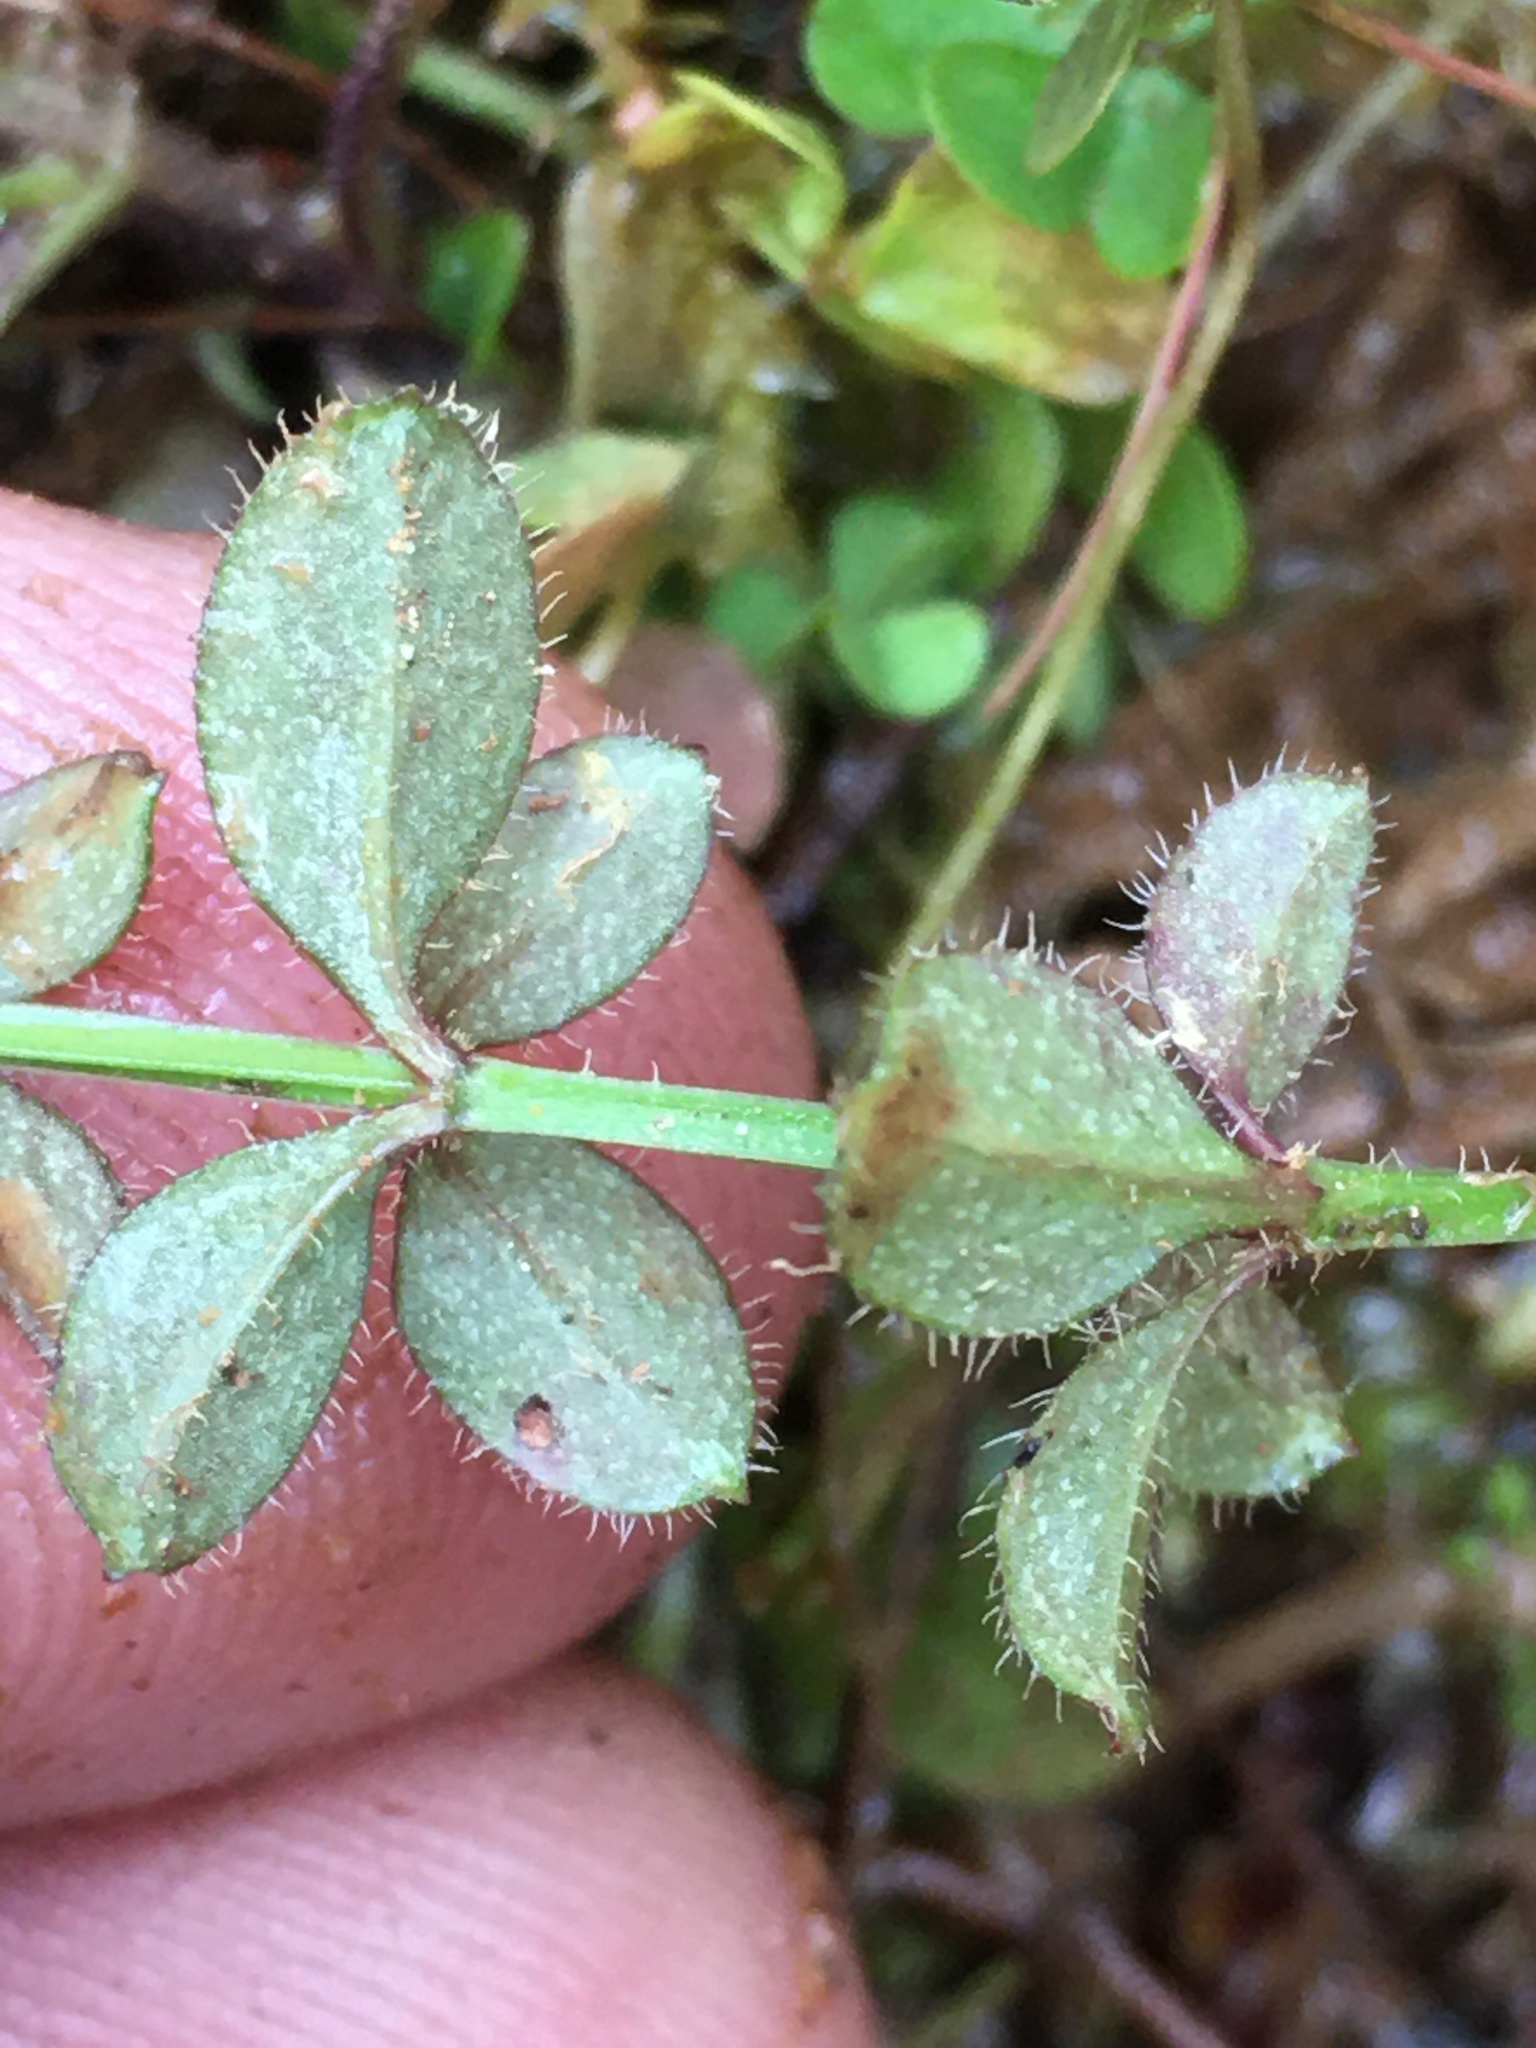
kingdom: Plantae
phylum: Tracheophyta
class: Magnoliopsida
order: Gentianales
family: Rubiaceae
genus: Galium
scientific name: Galium pilosum
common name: Hairy bedstraw
